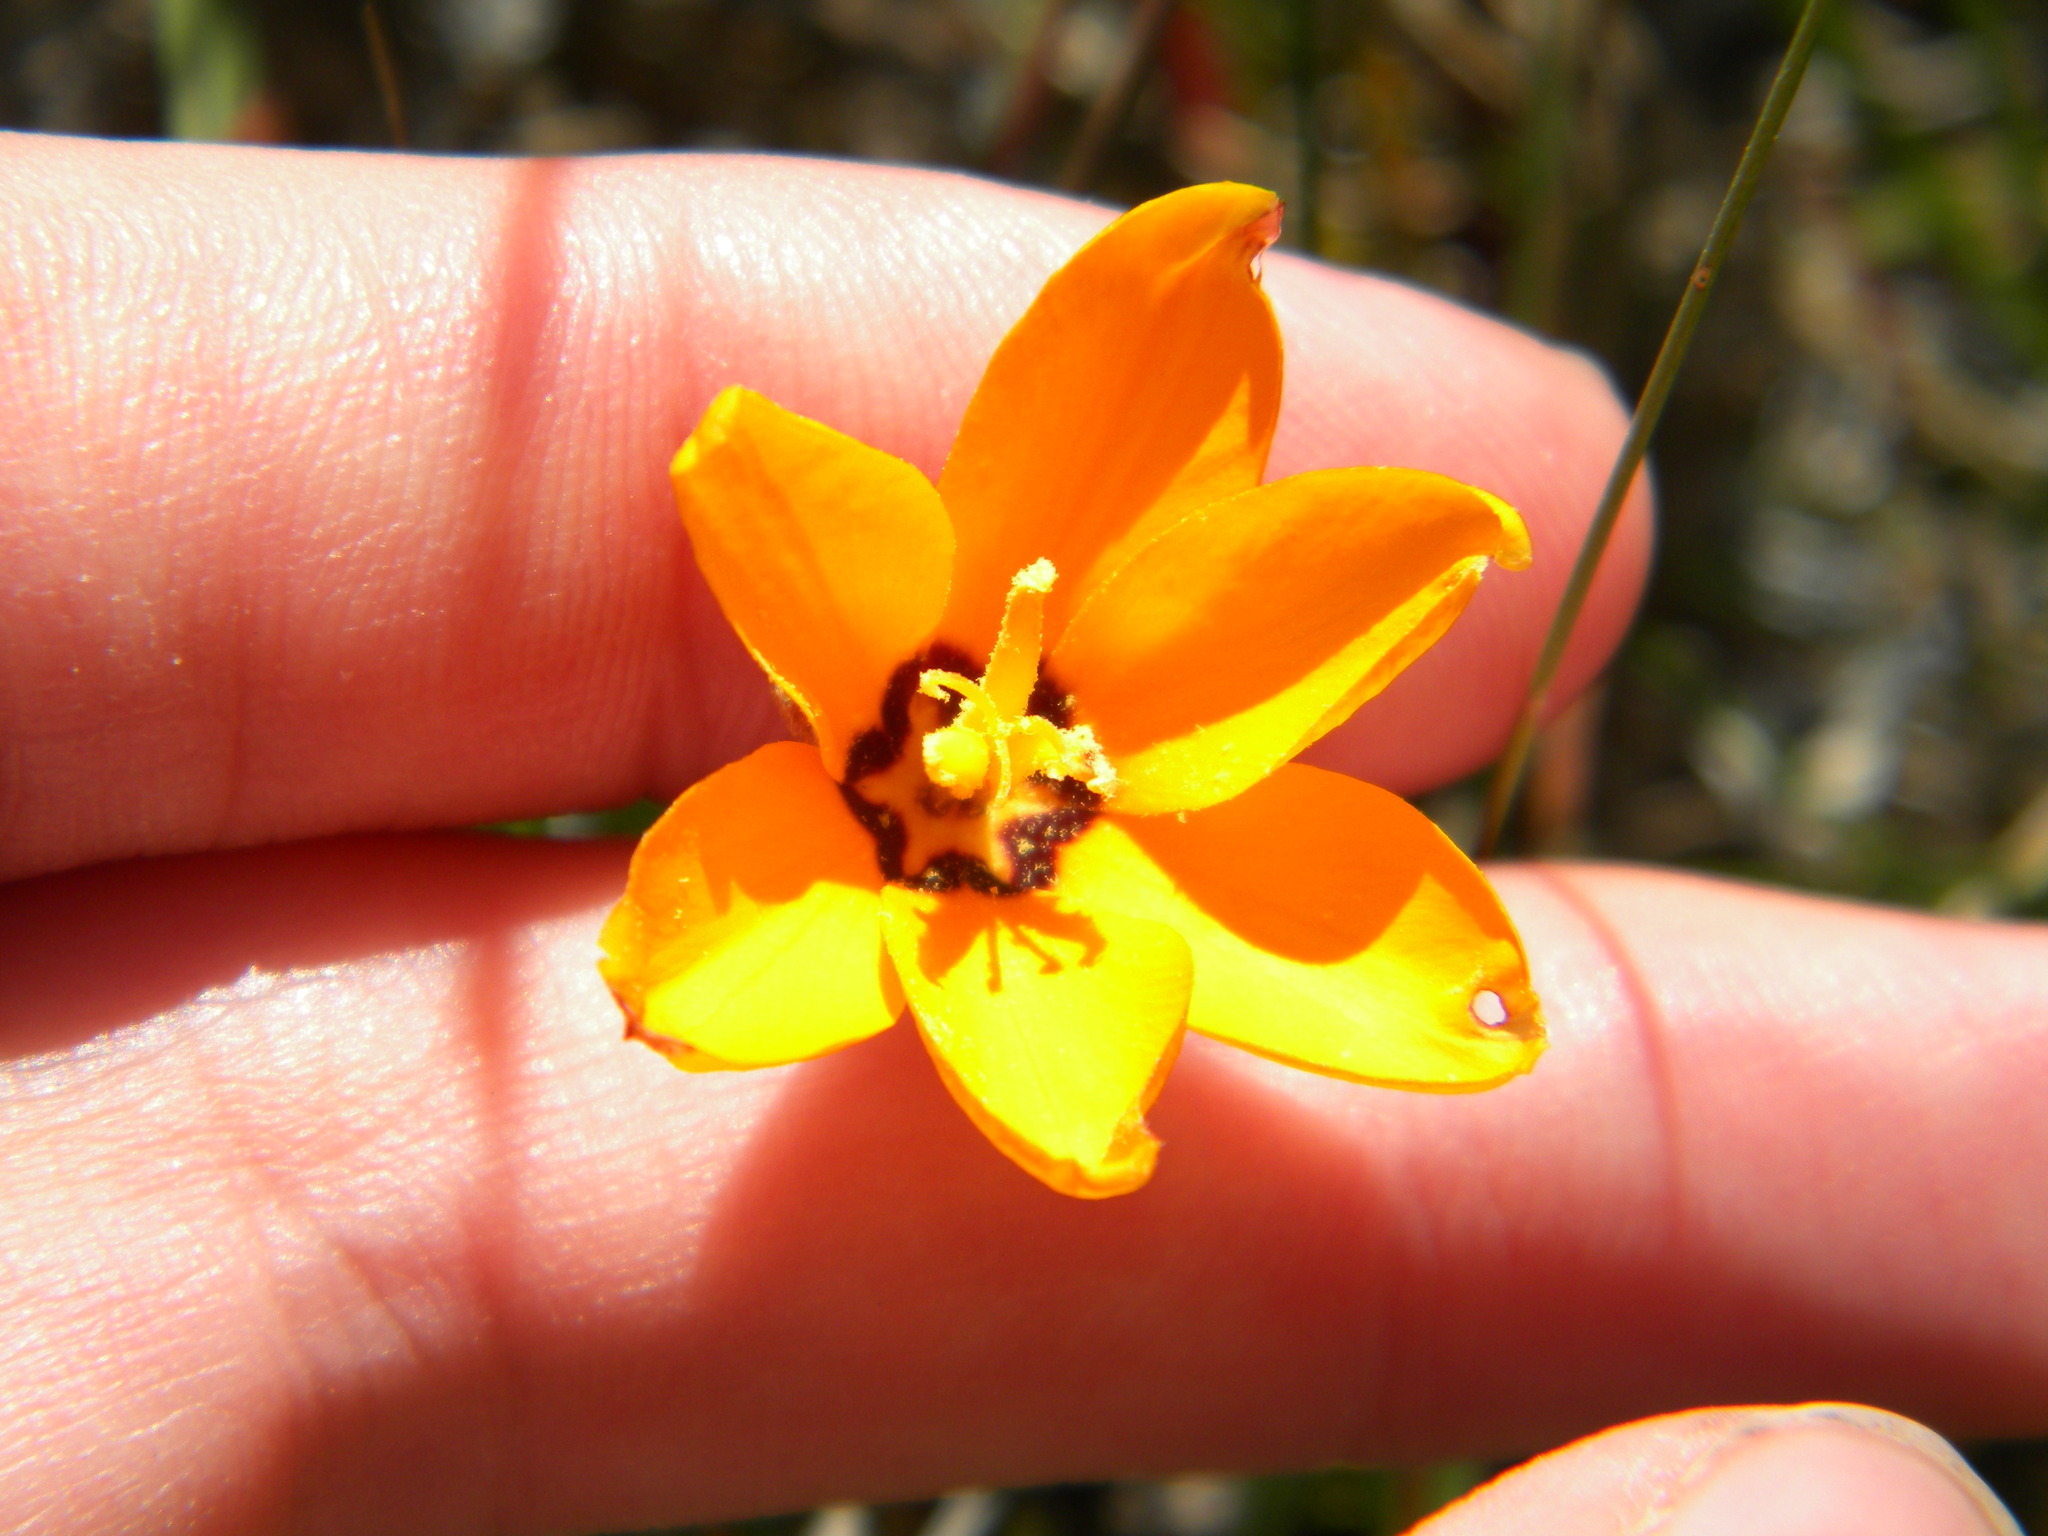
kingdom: Plantae
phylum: Tracheophyta
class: Liliopsida
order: Asparagales
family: Iridaceae
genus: Ixia
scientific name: Ixia maculata
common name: Spotted african cornlily
